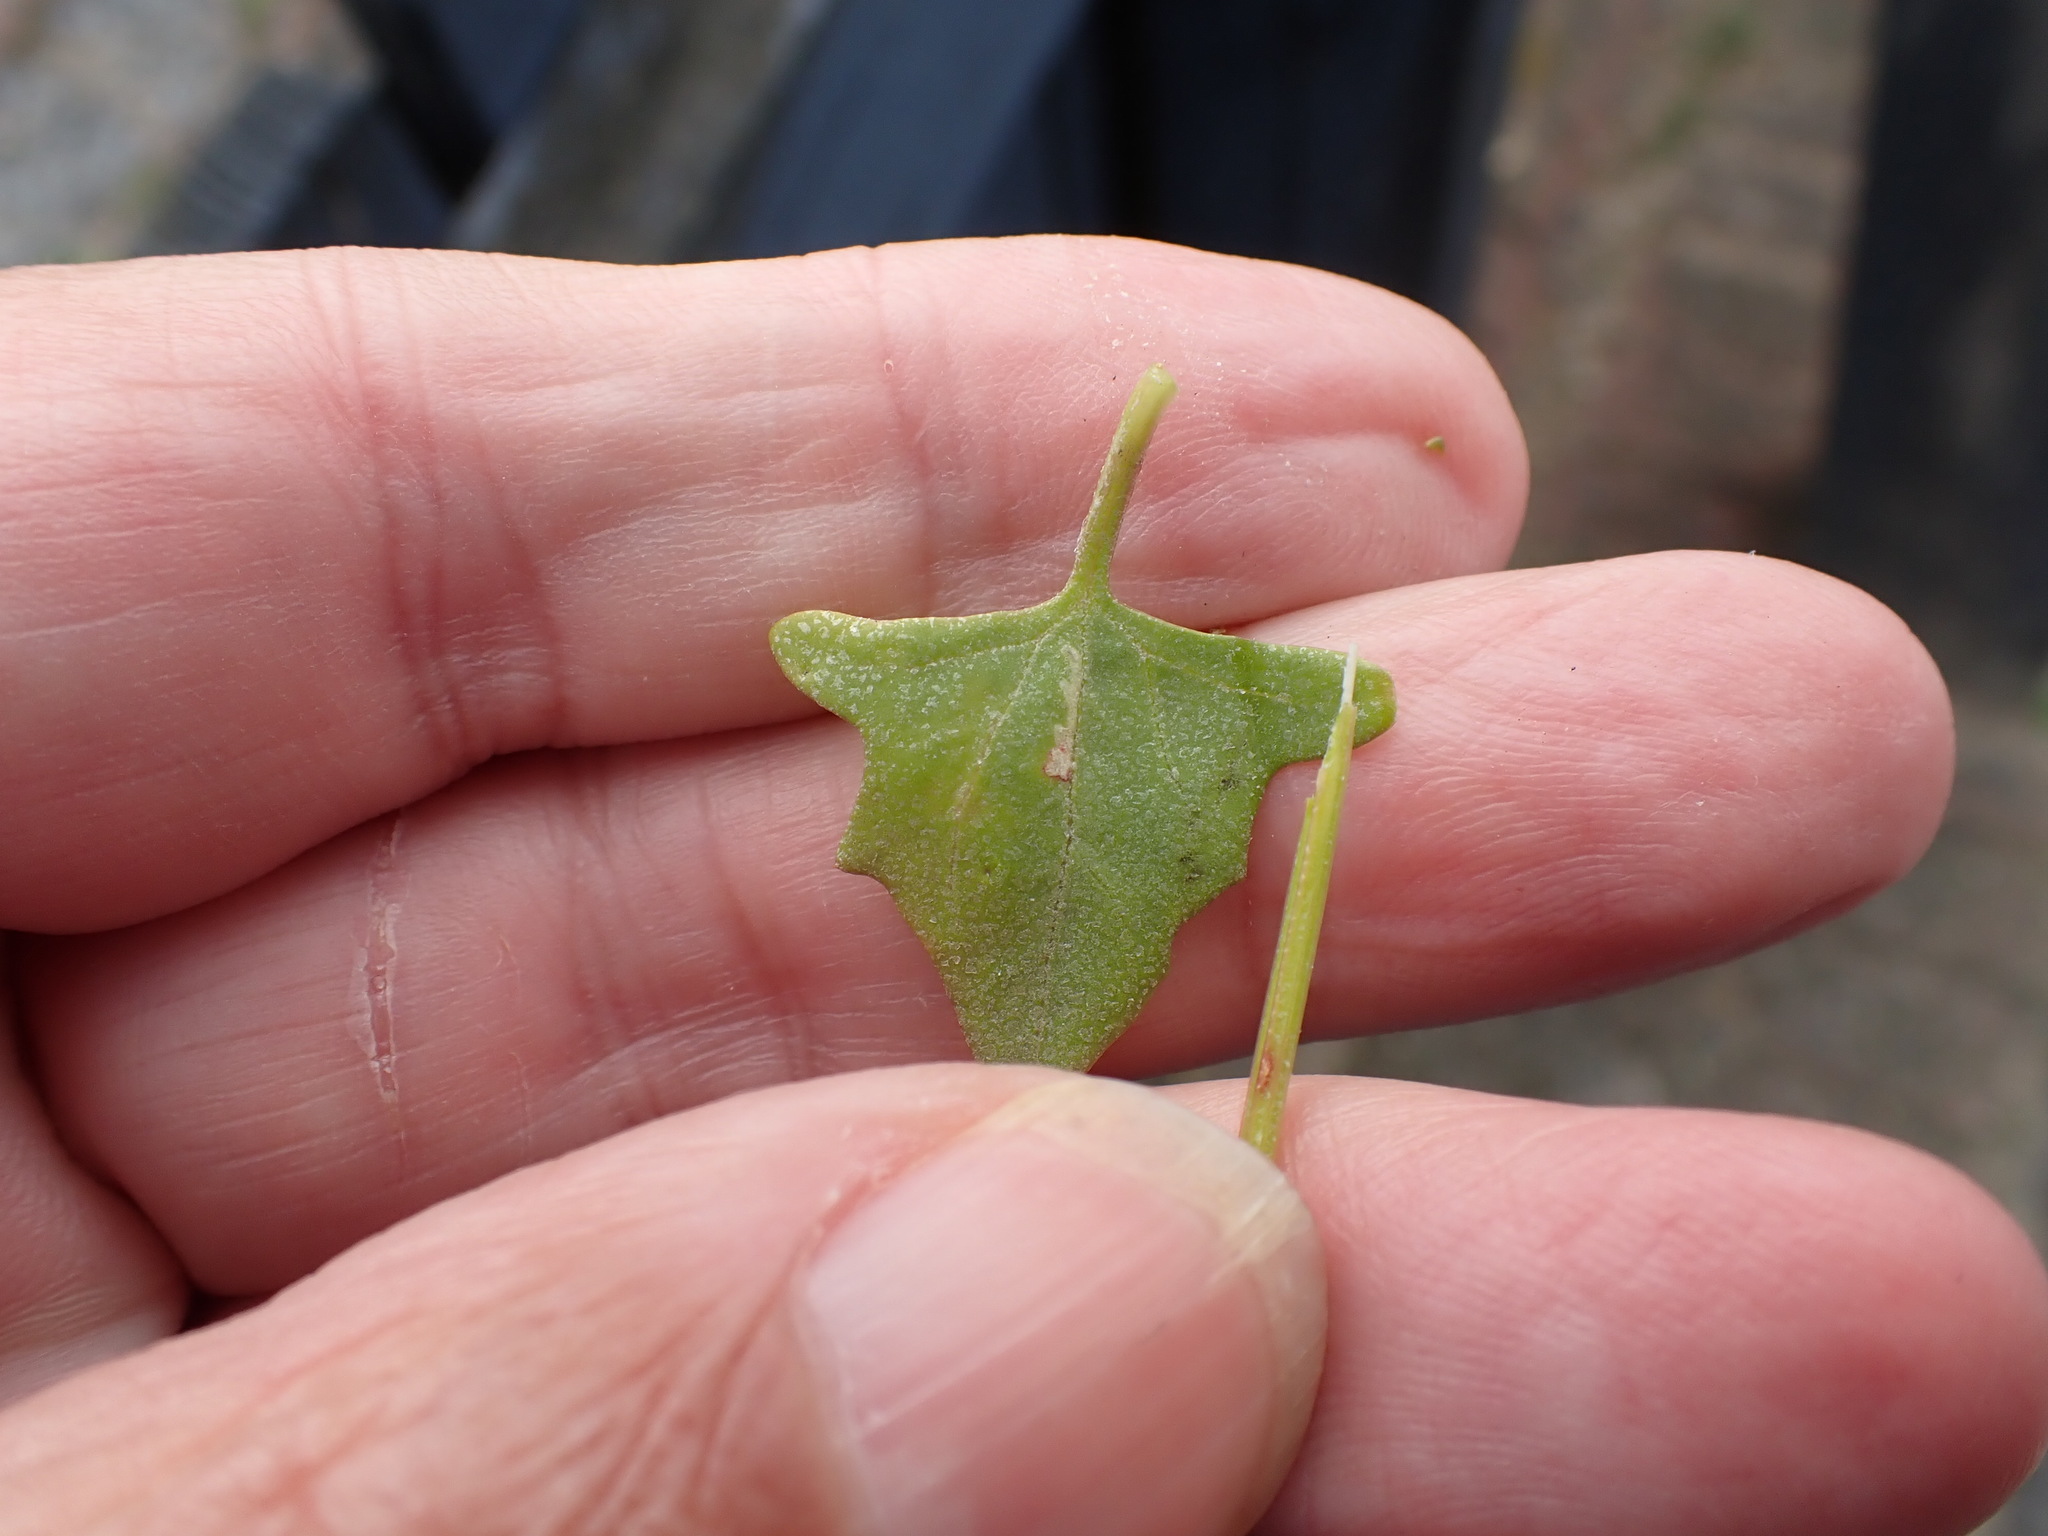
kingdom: Plantae
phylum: Tracheophyta
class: Magnoliopsida
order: Caryophyllales
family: Amaranthaceae
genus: Atriplex
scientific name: Atriplex prostrata
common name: Spear-leaved orache
